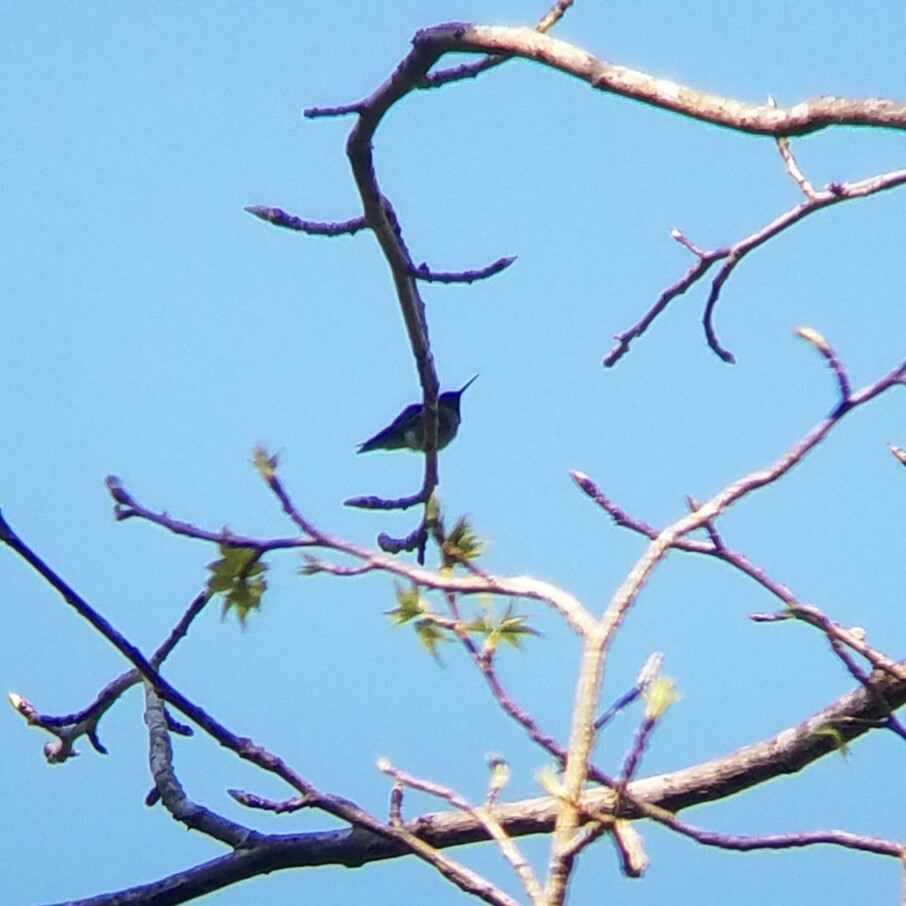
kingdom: Animalia
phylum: Chordata
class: Aves
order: Apodiformes
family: Trochilidae
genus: Archilochus
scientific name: Archilochus colubris
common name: Ruby-throated hummingbird
